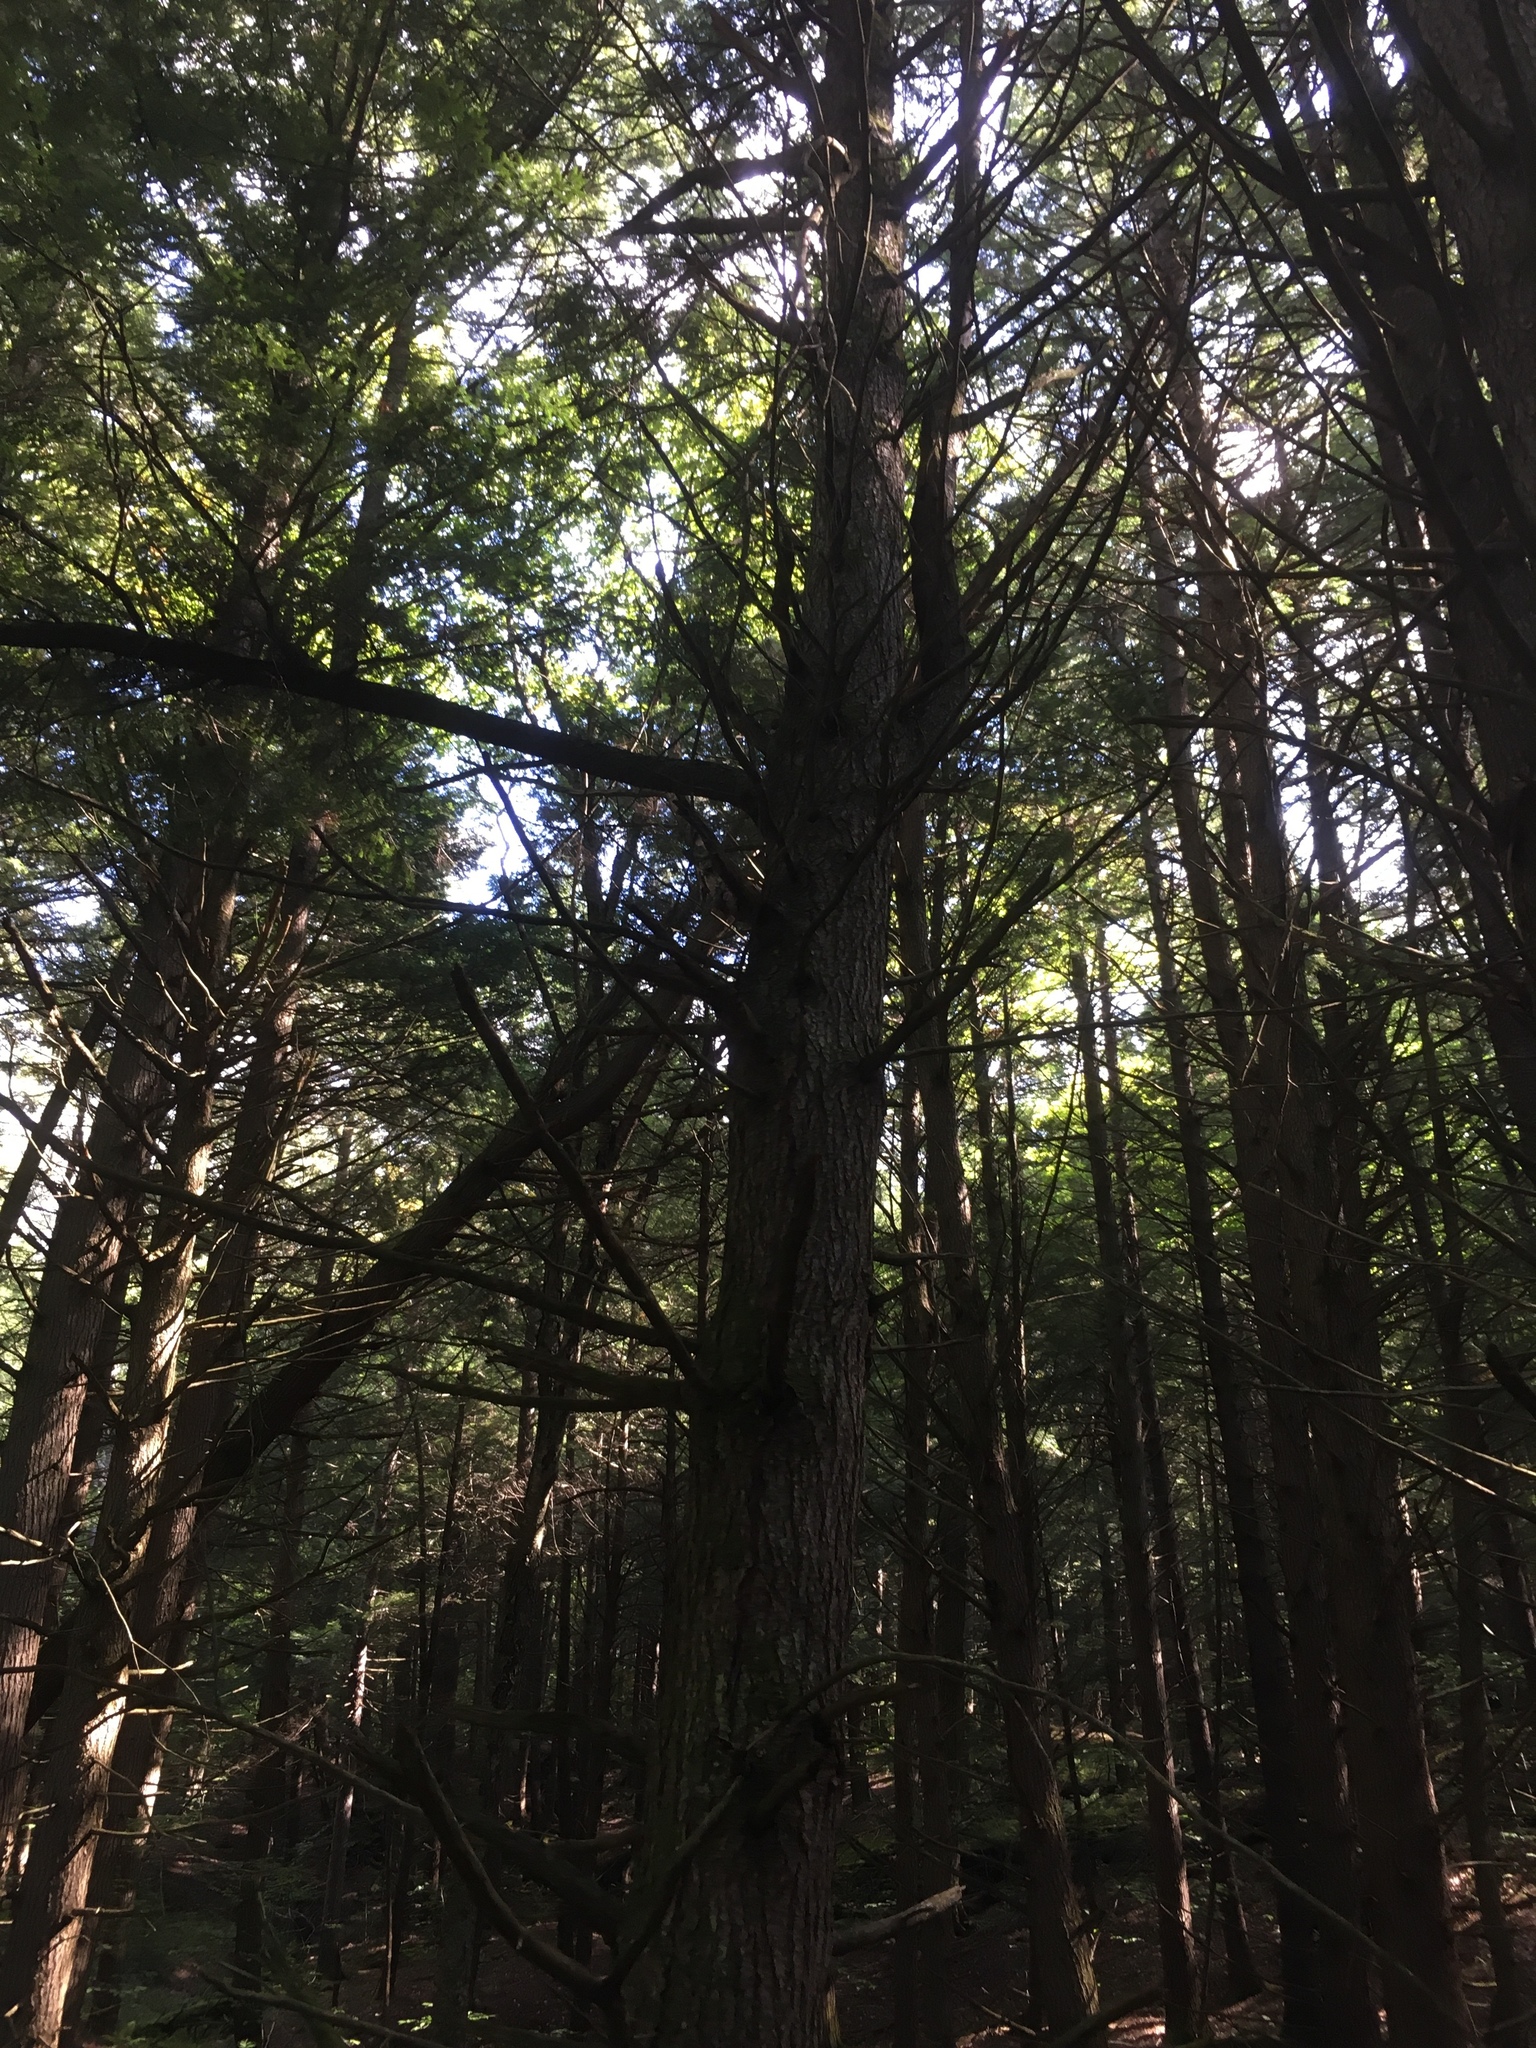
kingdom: Plantae
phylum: Tracheophyta
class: Pinopsida
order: Pinales
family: Pinaceae
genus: Tsuga
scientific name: Tsuga canadensis
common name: Eastern hemlock
